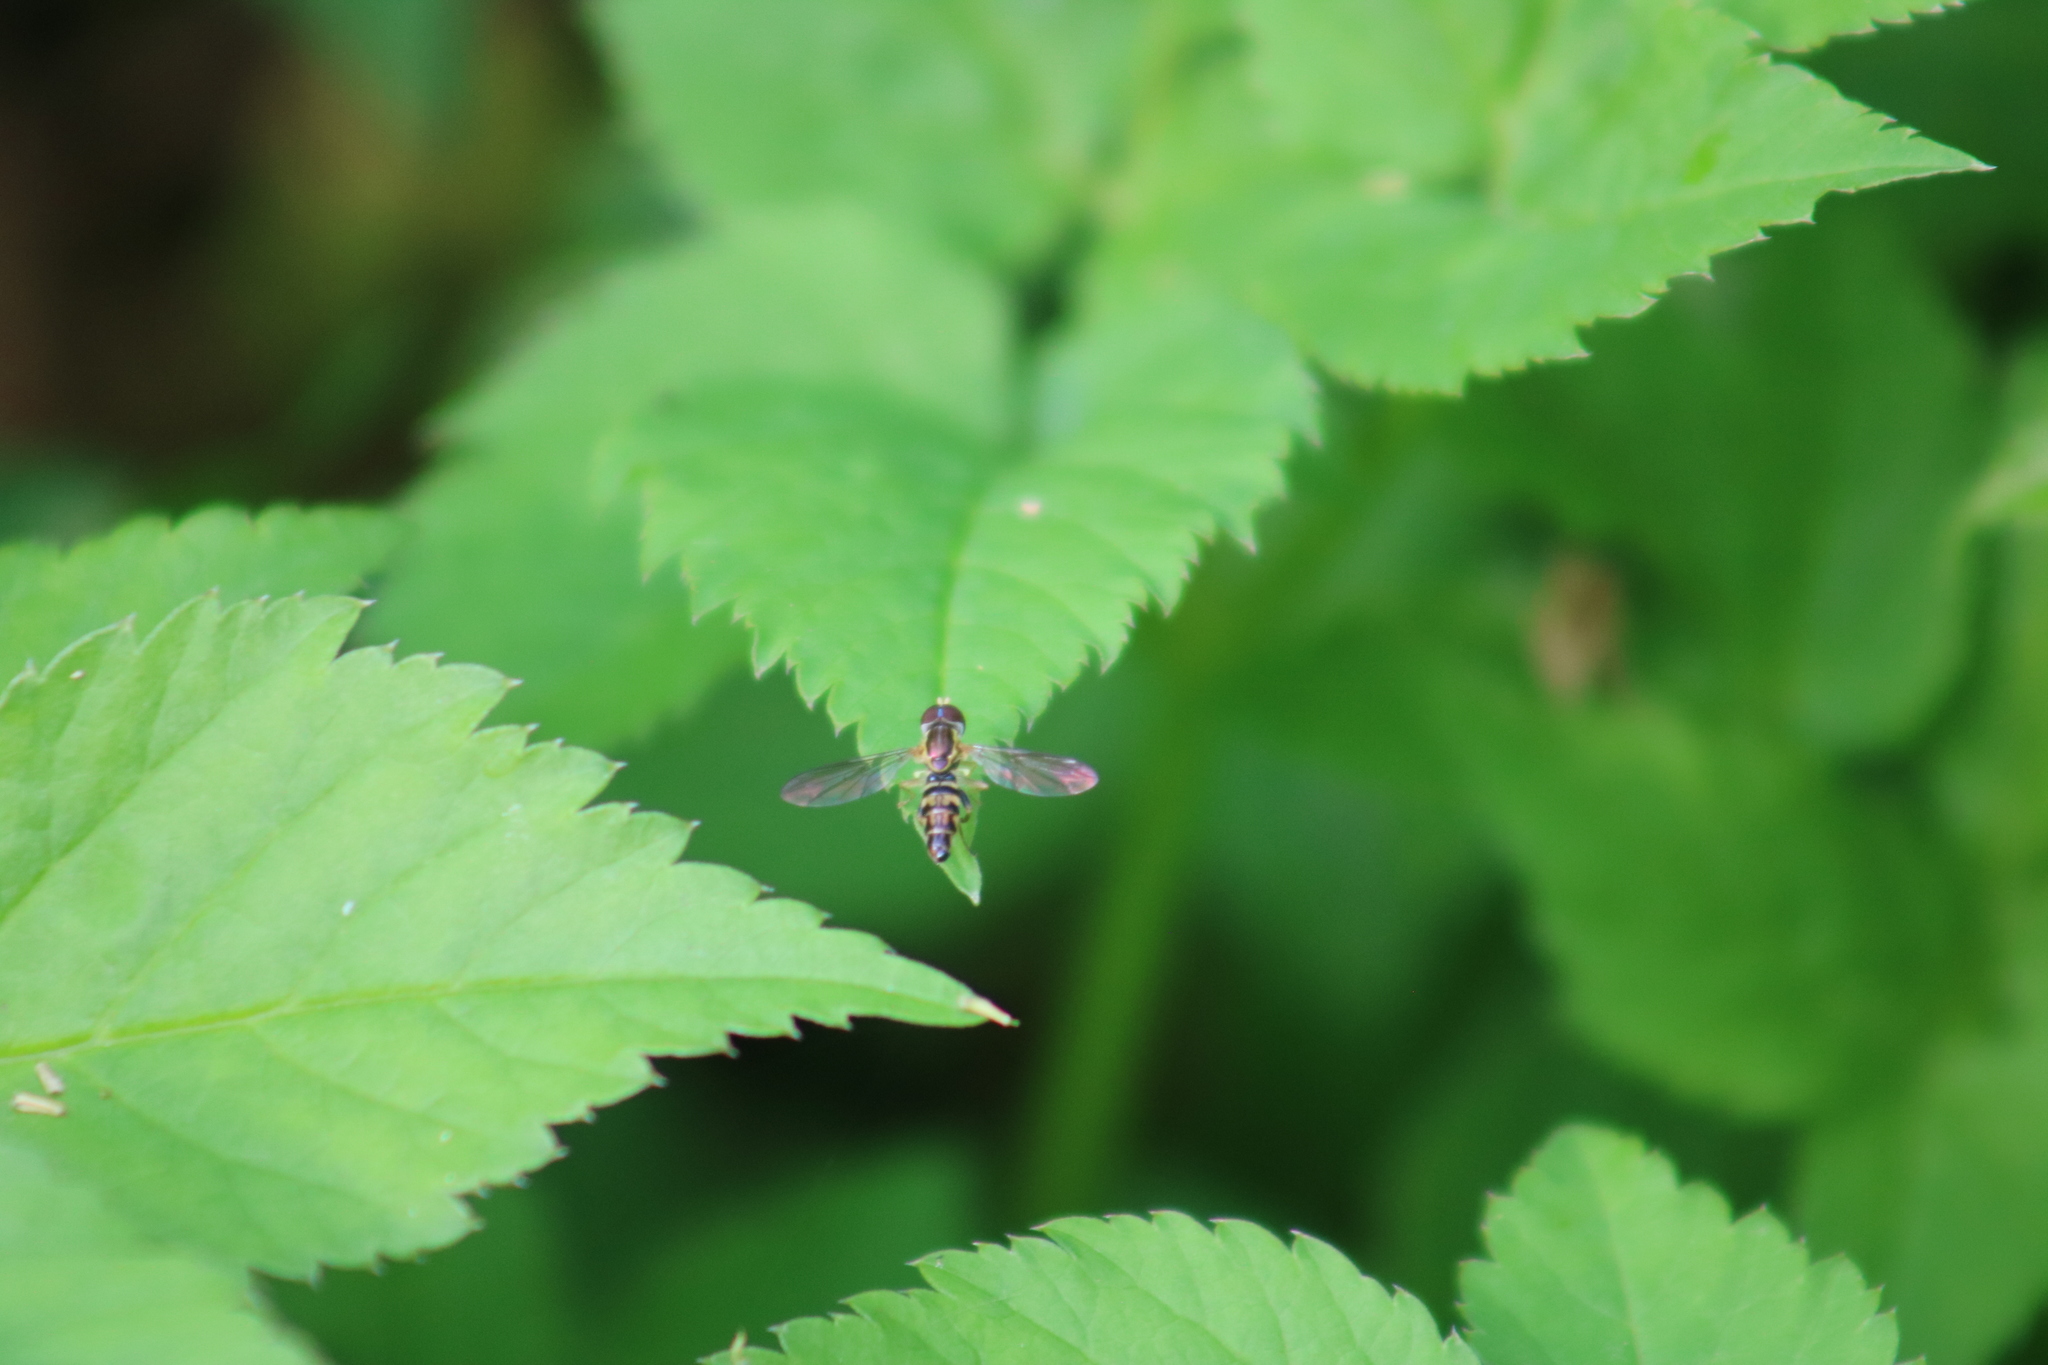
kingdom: Animalia
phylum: Arthropoda
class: Insecta
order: Diptera
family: Syrphidae
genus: Toxomerus
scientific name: Toxomerus geminatus
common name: Eastern calligrapher
